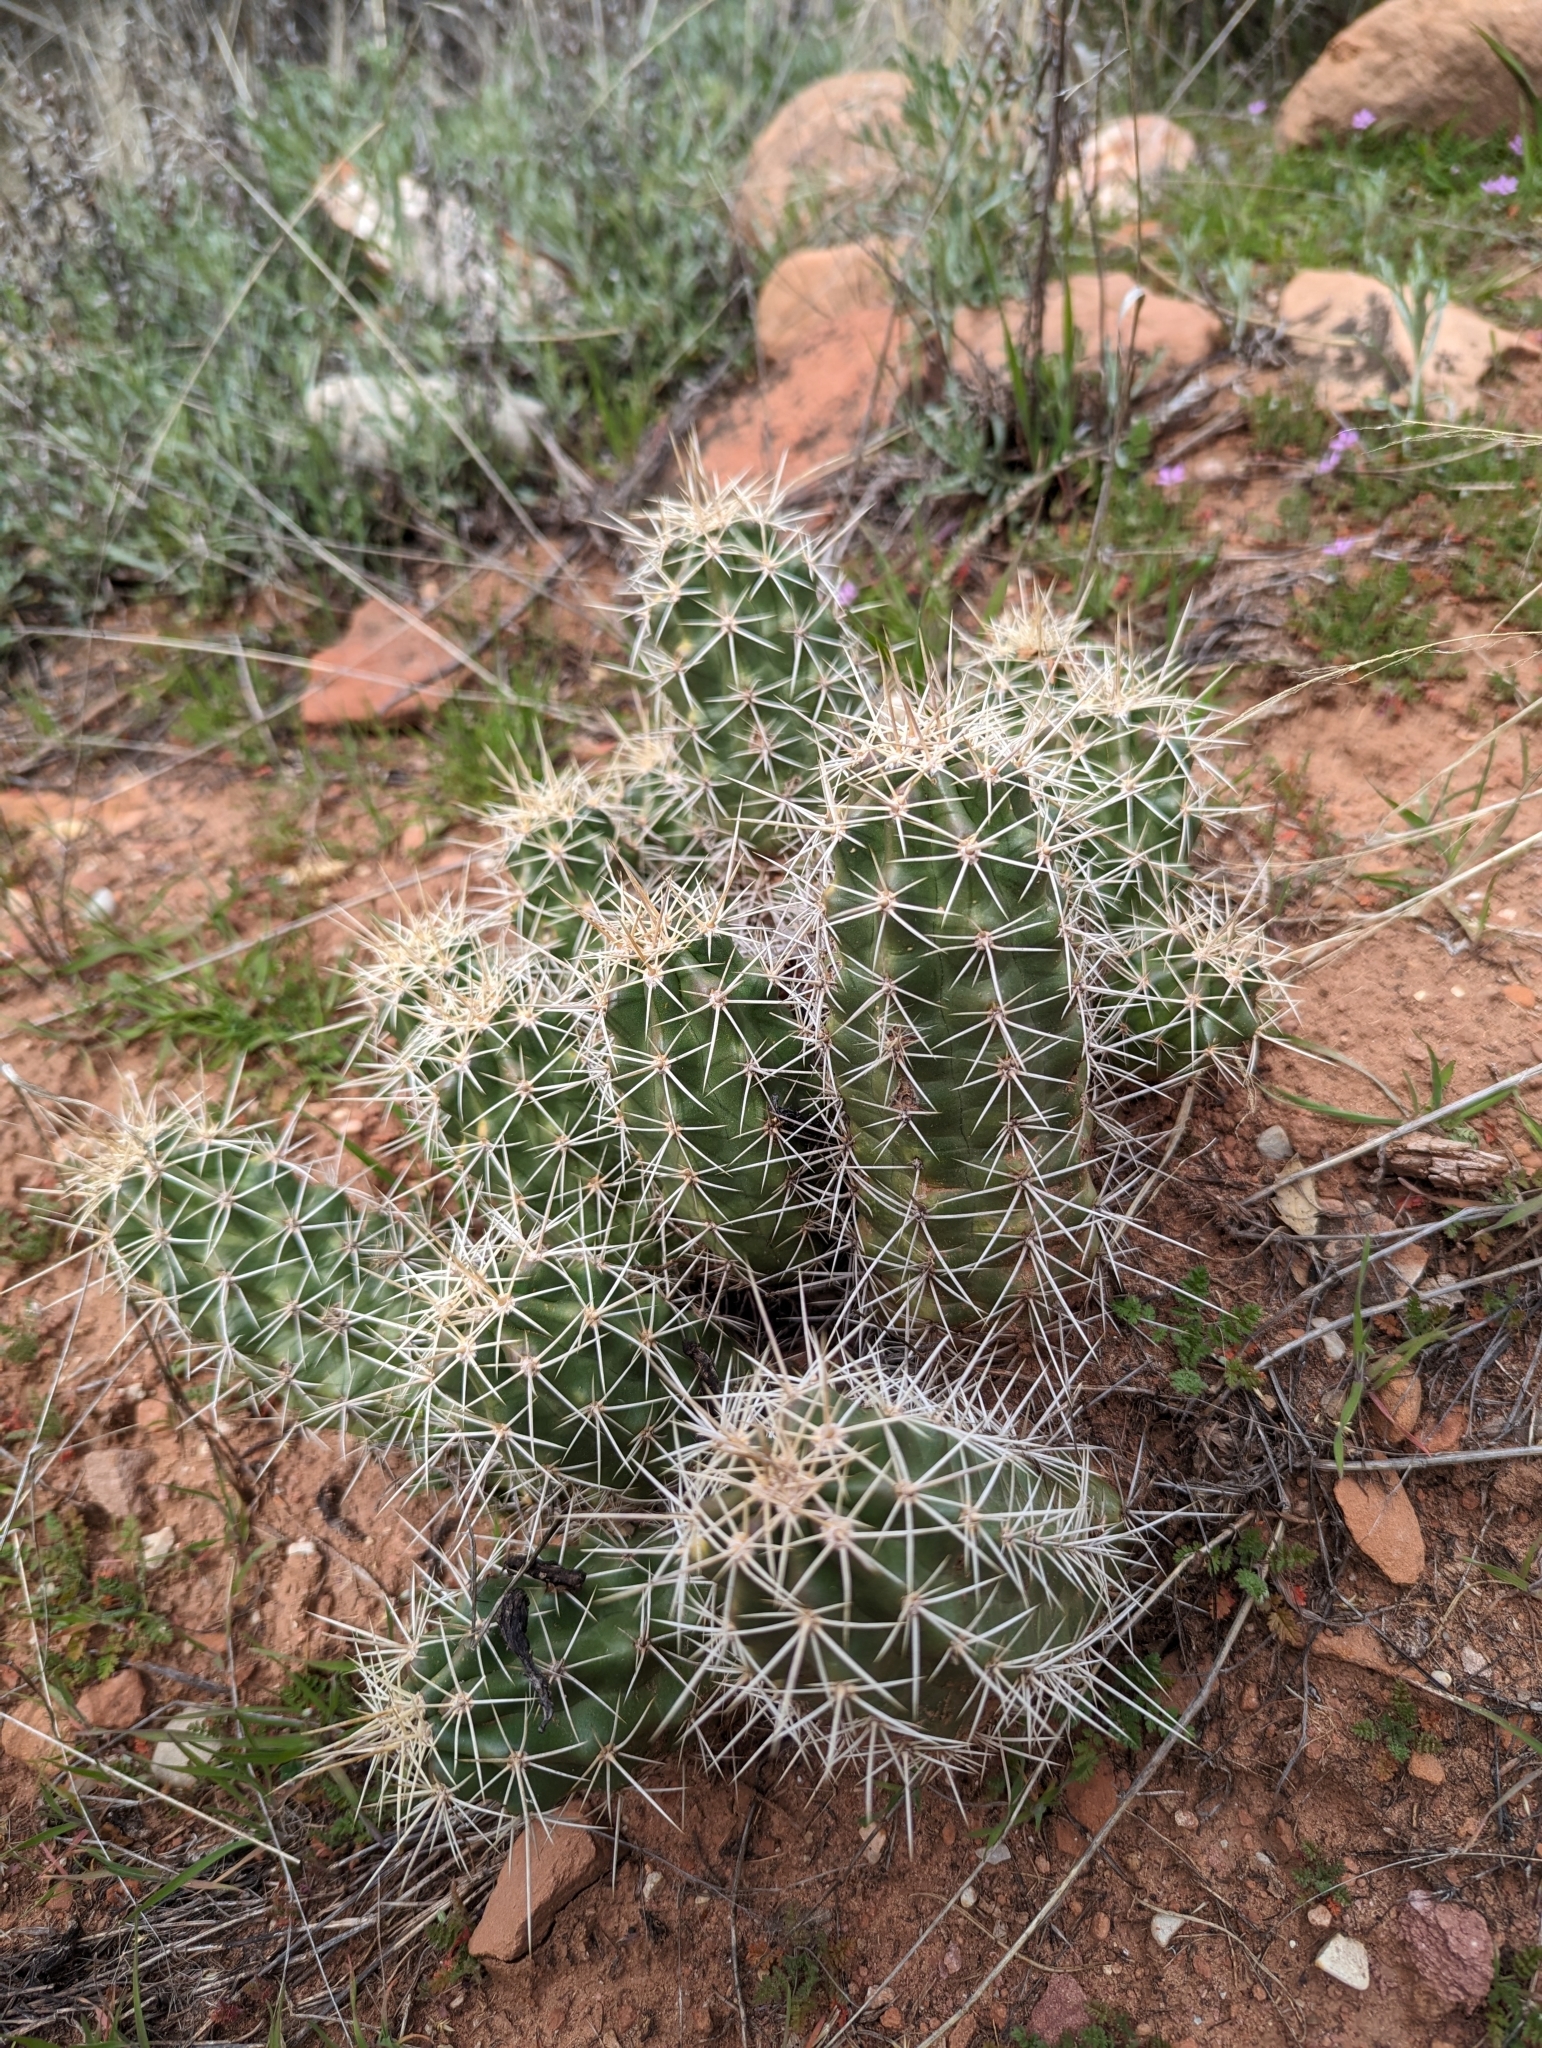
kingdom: Plantae
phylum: Tracheophyta
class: Magnoliopsida
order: Caryophyllales
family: Cactaceae
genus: Echinocereus
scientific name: Echinocereus triglochidiatus
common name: Claretcup hedgehog
